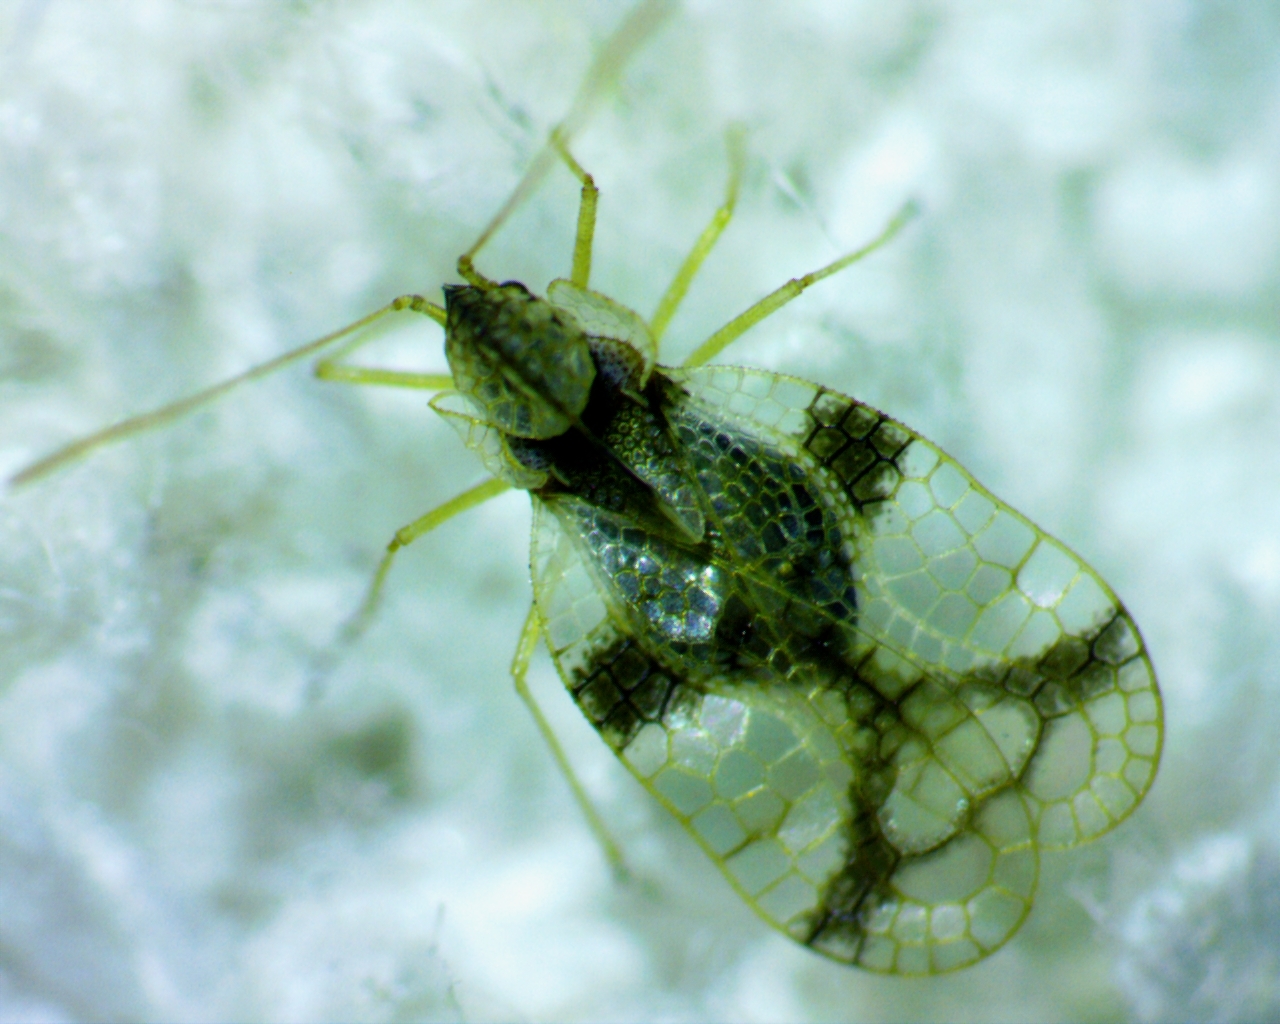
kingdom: Animalia
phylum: Arthropoda
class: Insecta
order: Hemiptera
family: Tingidae
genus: Stephanitis
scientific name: Stephanitis pyrioides
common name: Azalea lace bug
